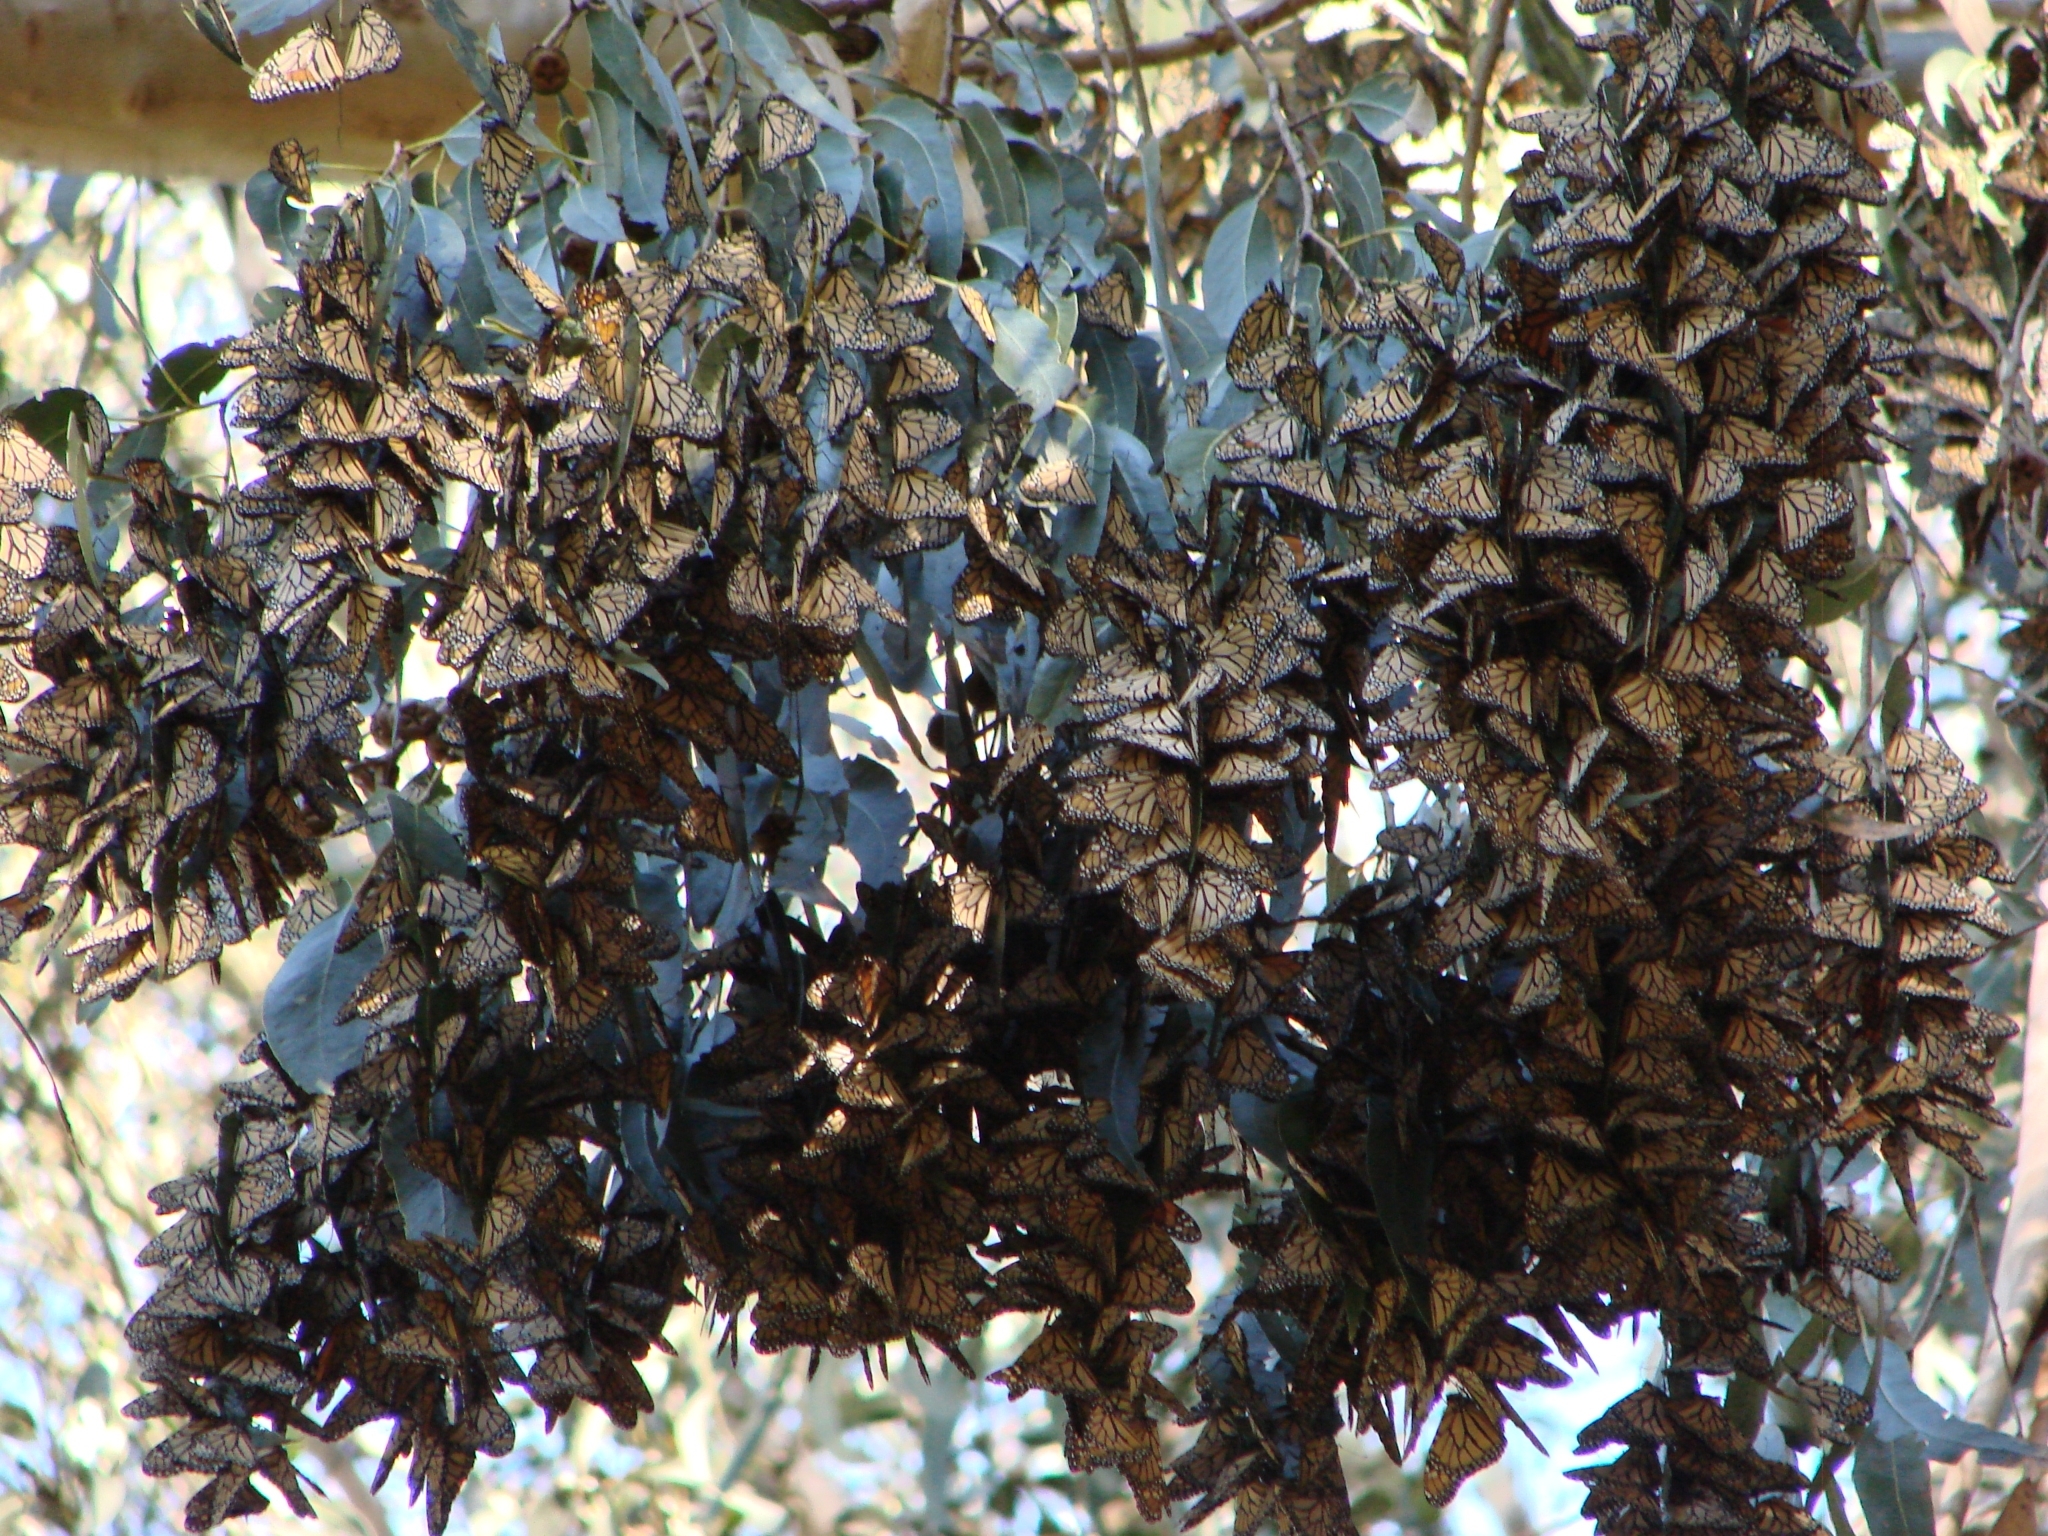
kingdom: Animalia
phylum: Arthropoda
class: Insecta
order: Lepidoptera
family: Nymphalidae
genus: Danaus
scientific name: Danaus plexippus
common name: Monarch
